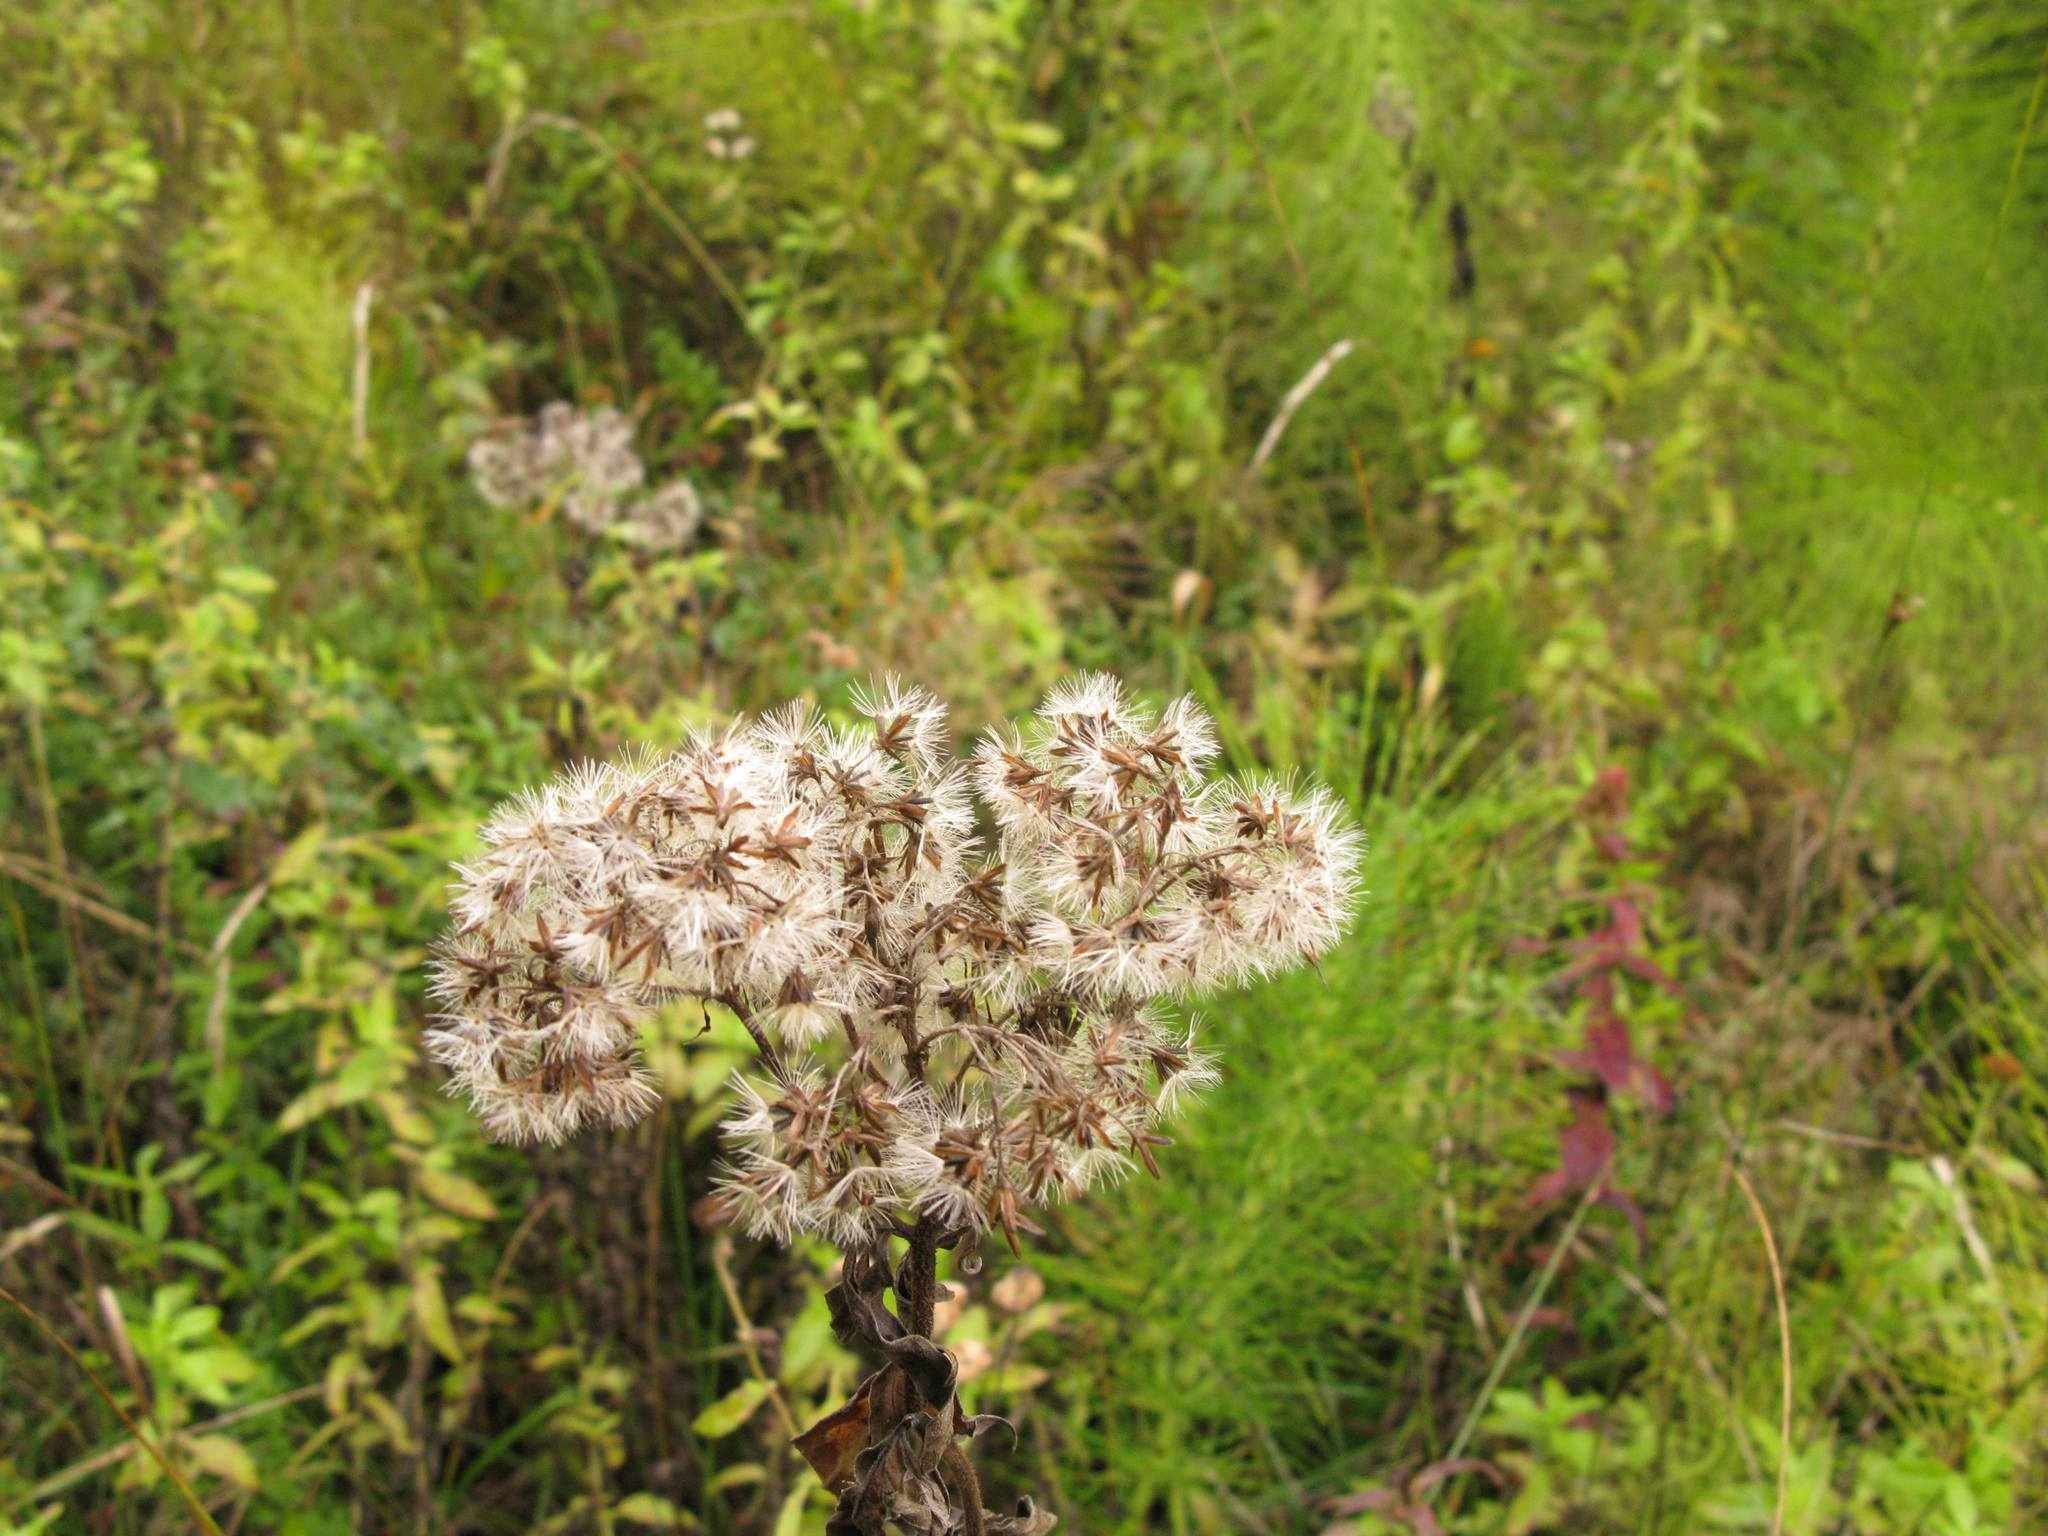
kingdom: Plantae
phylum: Tracheophyta
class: Magnoliopsida
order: Asterales
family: Asteraceae
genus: Eupatorium
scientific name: Eupatorium cannabinum
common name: Hemp-agrimony
